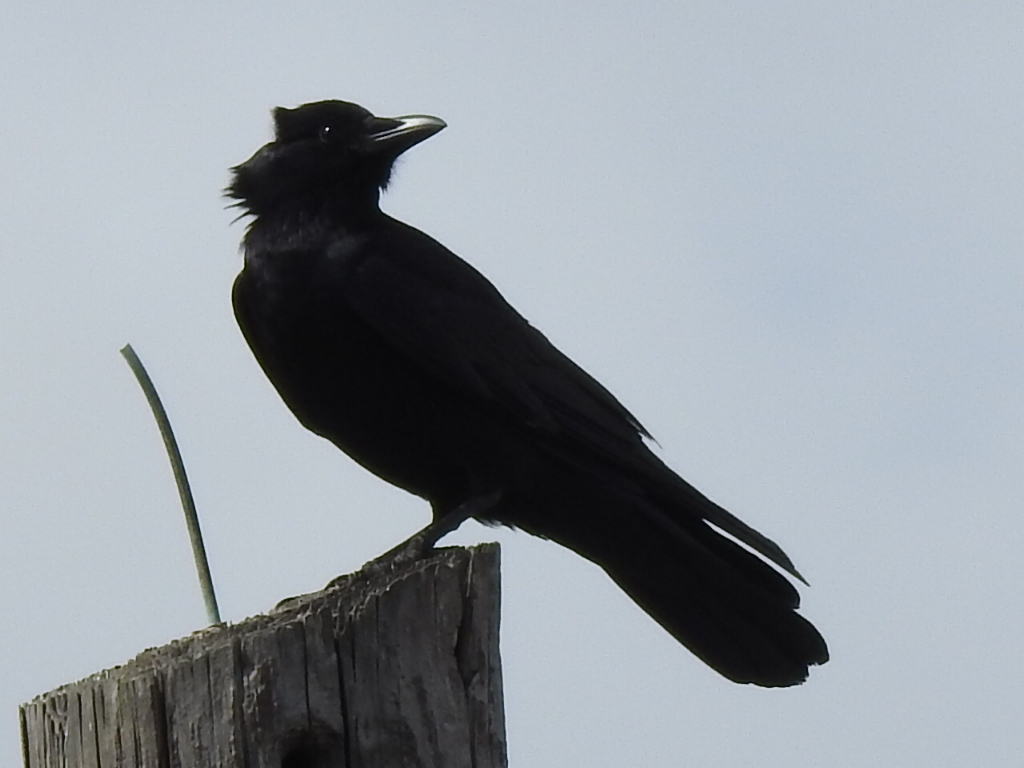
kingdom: Animalia
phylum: Chordata
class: Aves
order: Passeriformes
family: Corvidae
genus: Corvus
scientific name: Corvus ossifragus
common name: Fish crow
